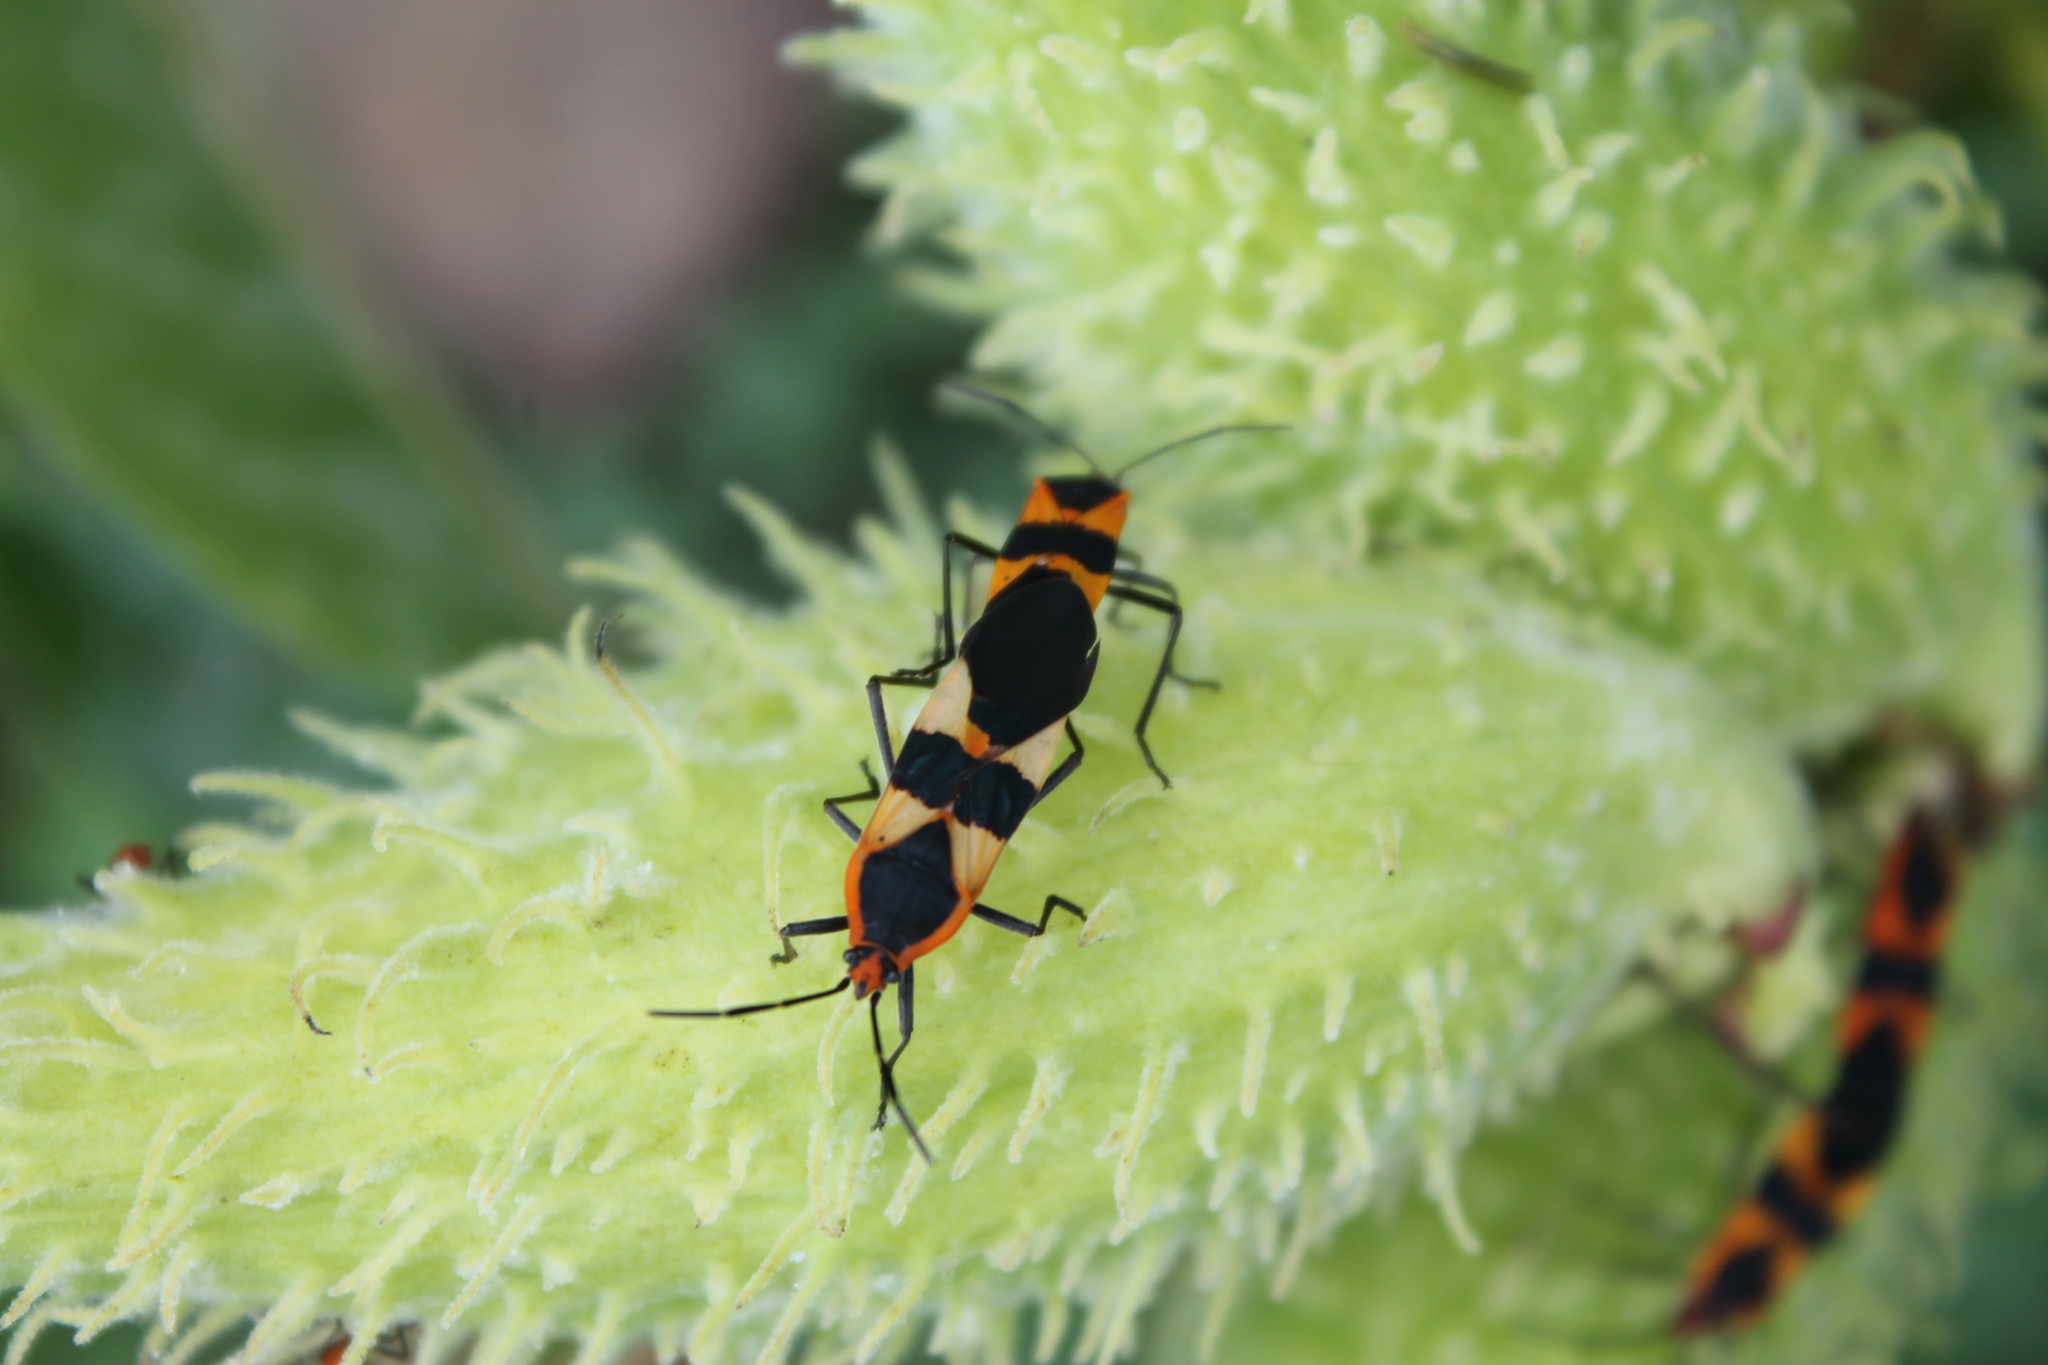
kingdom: Animalia
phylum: Arthropoda
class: Insecta
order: Hemiptera
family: Lygaeidae
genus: Oncopeltus
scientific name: Oncopeltus fasciatus
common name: Large milkweed bug
